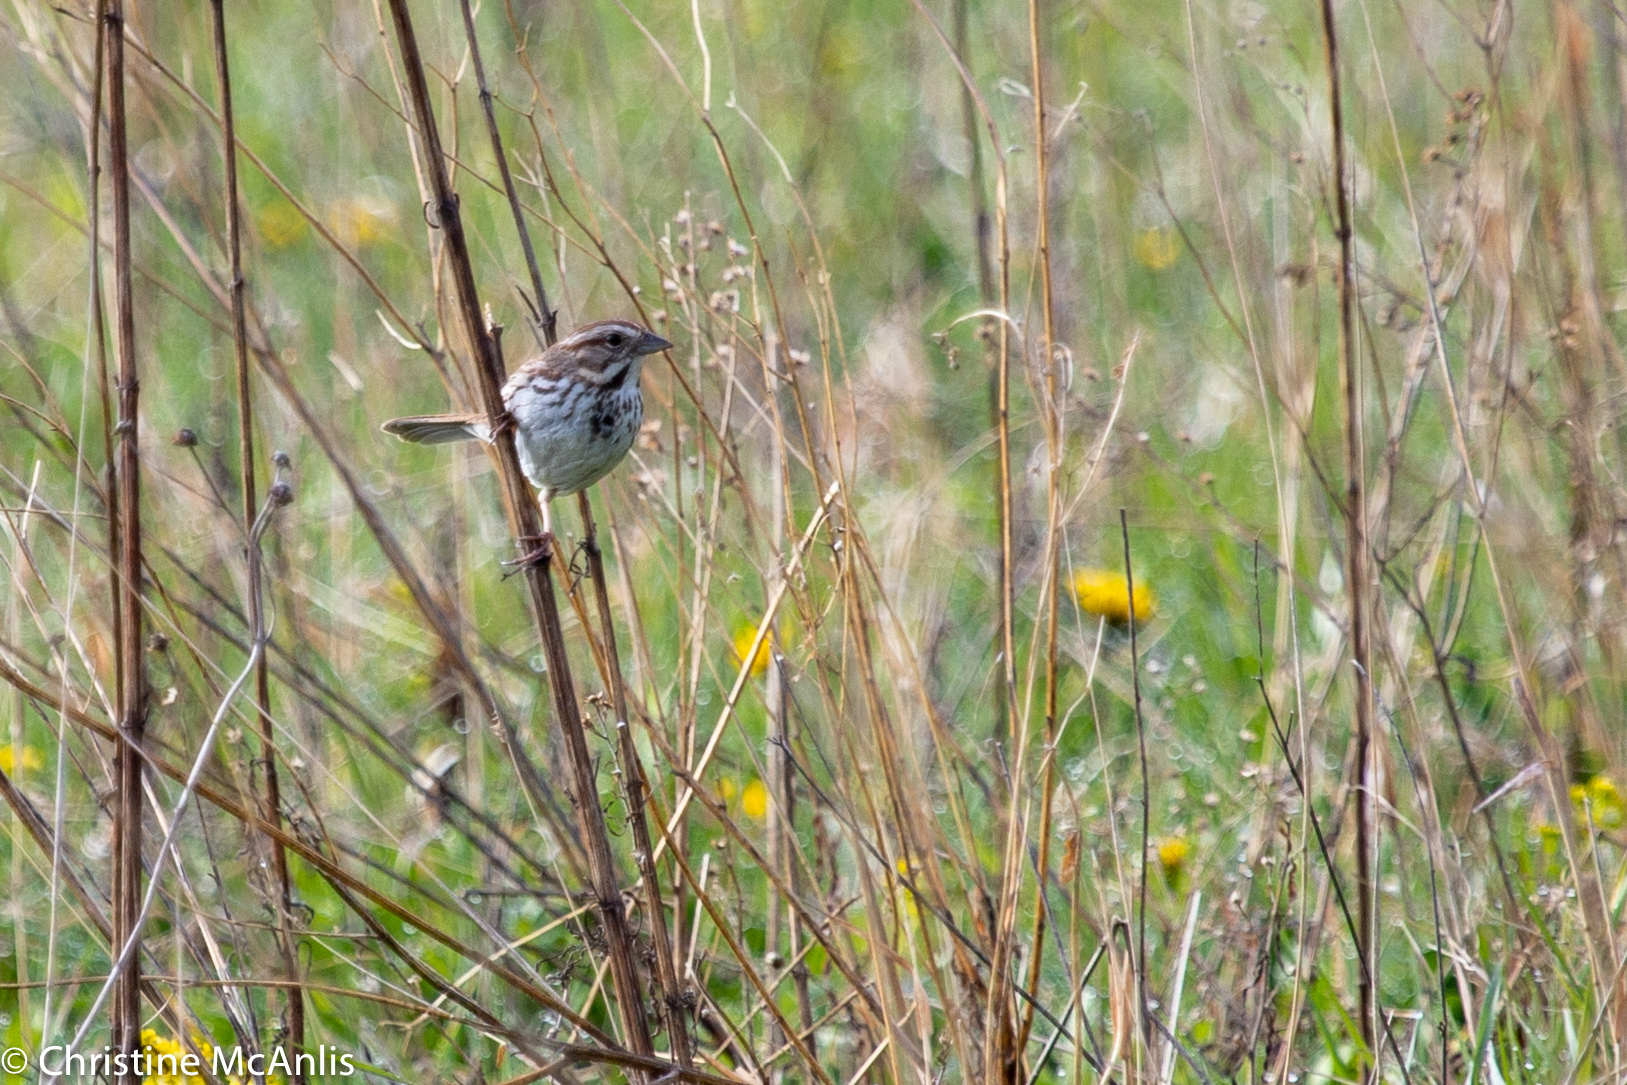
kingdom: Animalia
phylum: Chordata
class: Aves
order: Passeriformes
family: Passerellidae
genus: Melospiza
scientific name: Melospiza melodia
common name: Song sparrow
